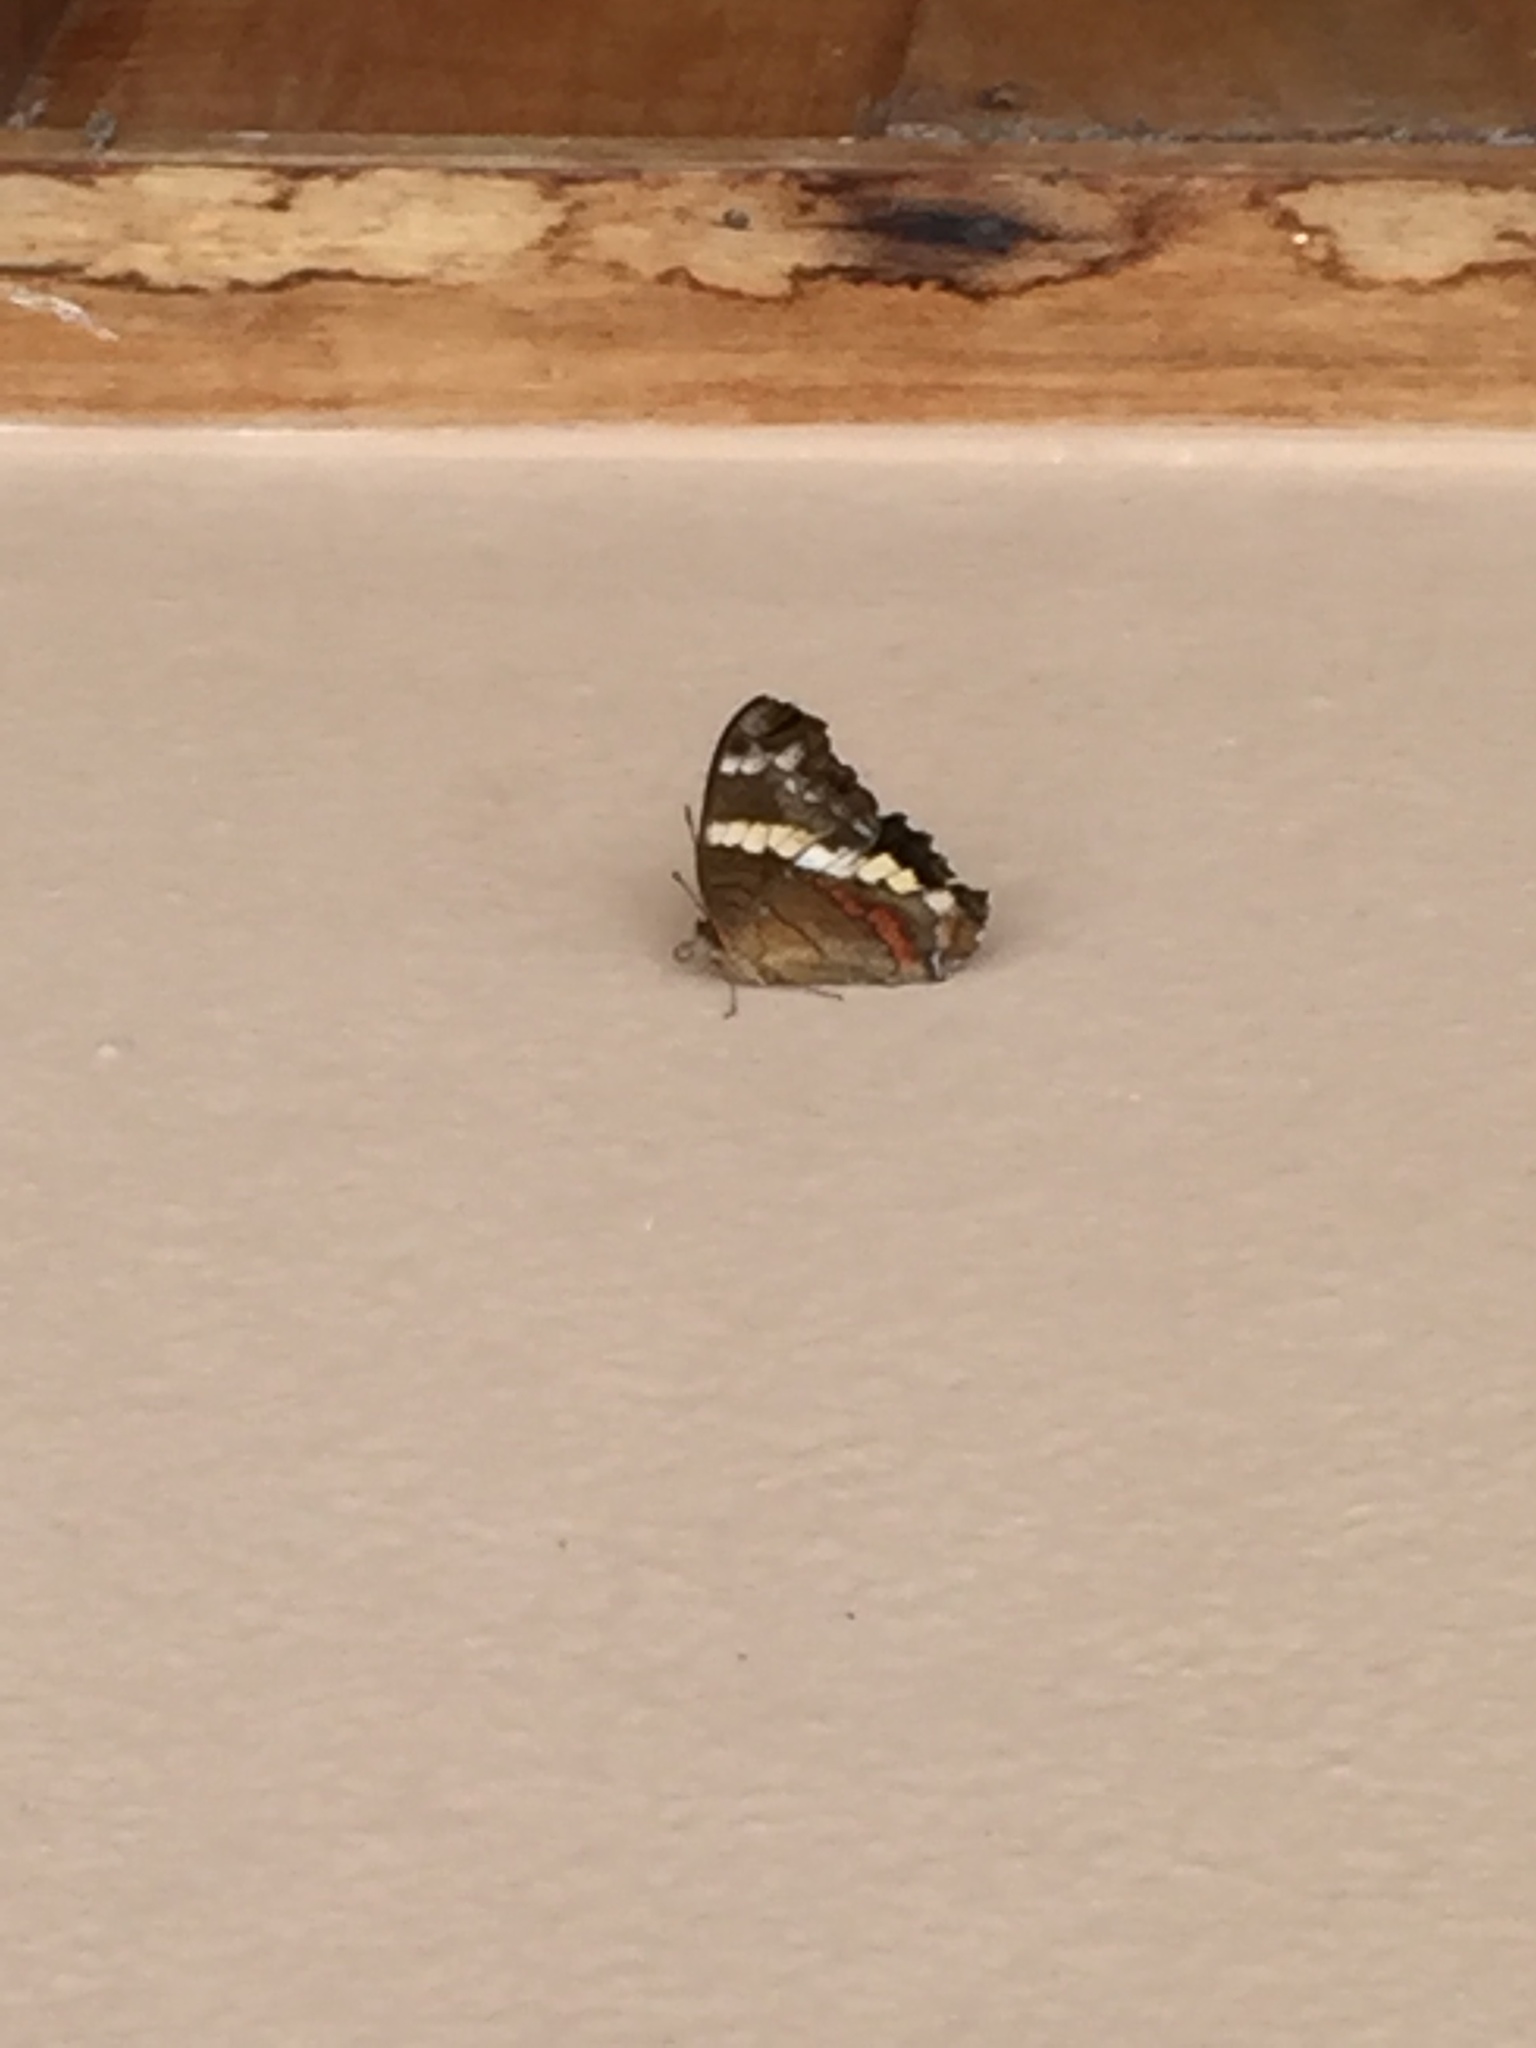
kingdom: Animalia
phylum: Arthropoda
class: Insecta
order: Lepidoptera
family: Nymphalidae
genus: Anartia
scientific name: Anartia fatima
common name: Banded peacock
